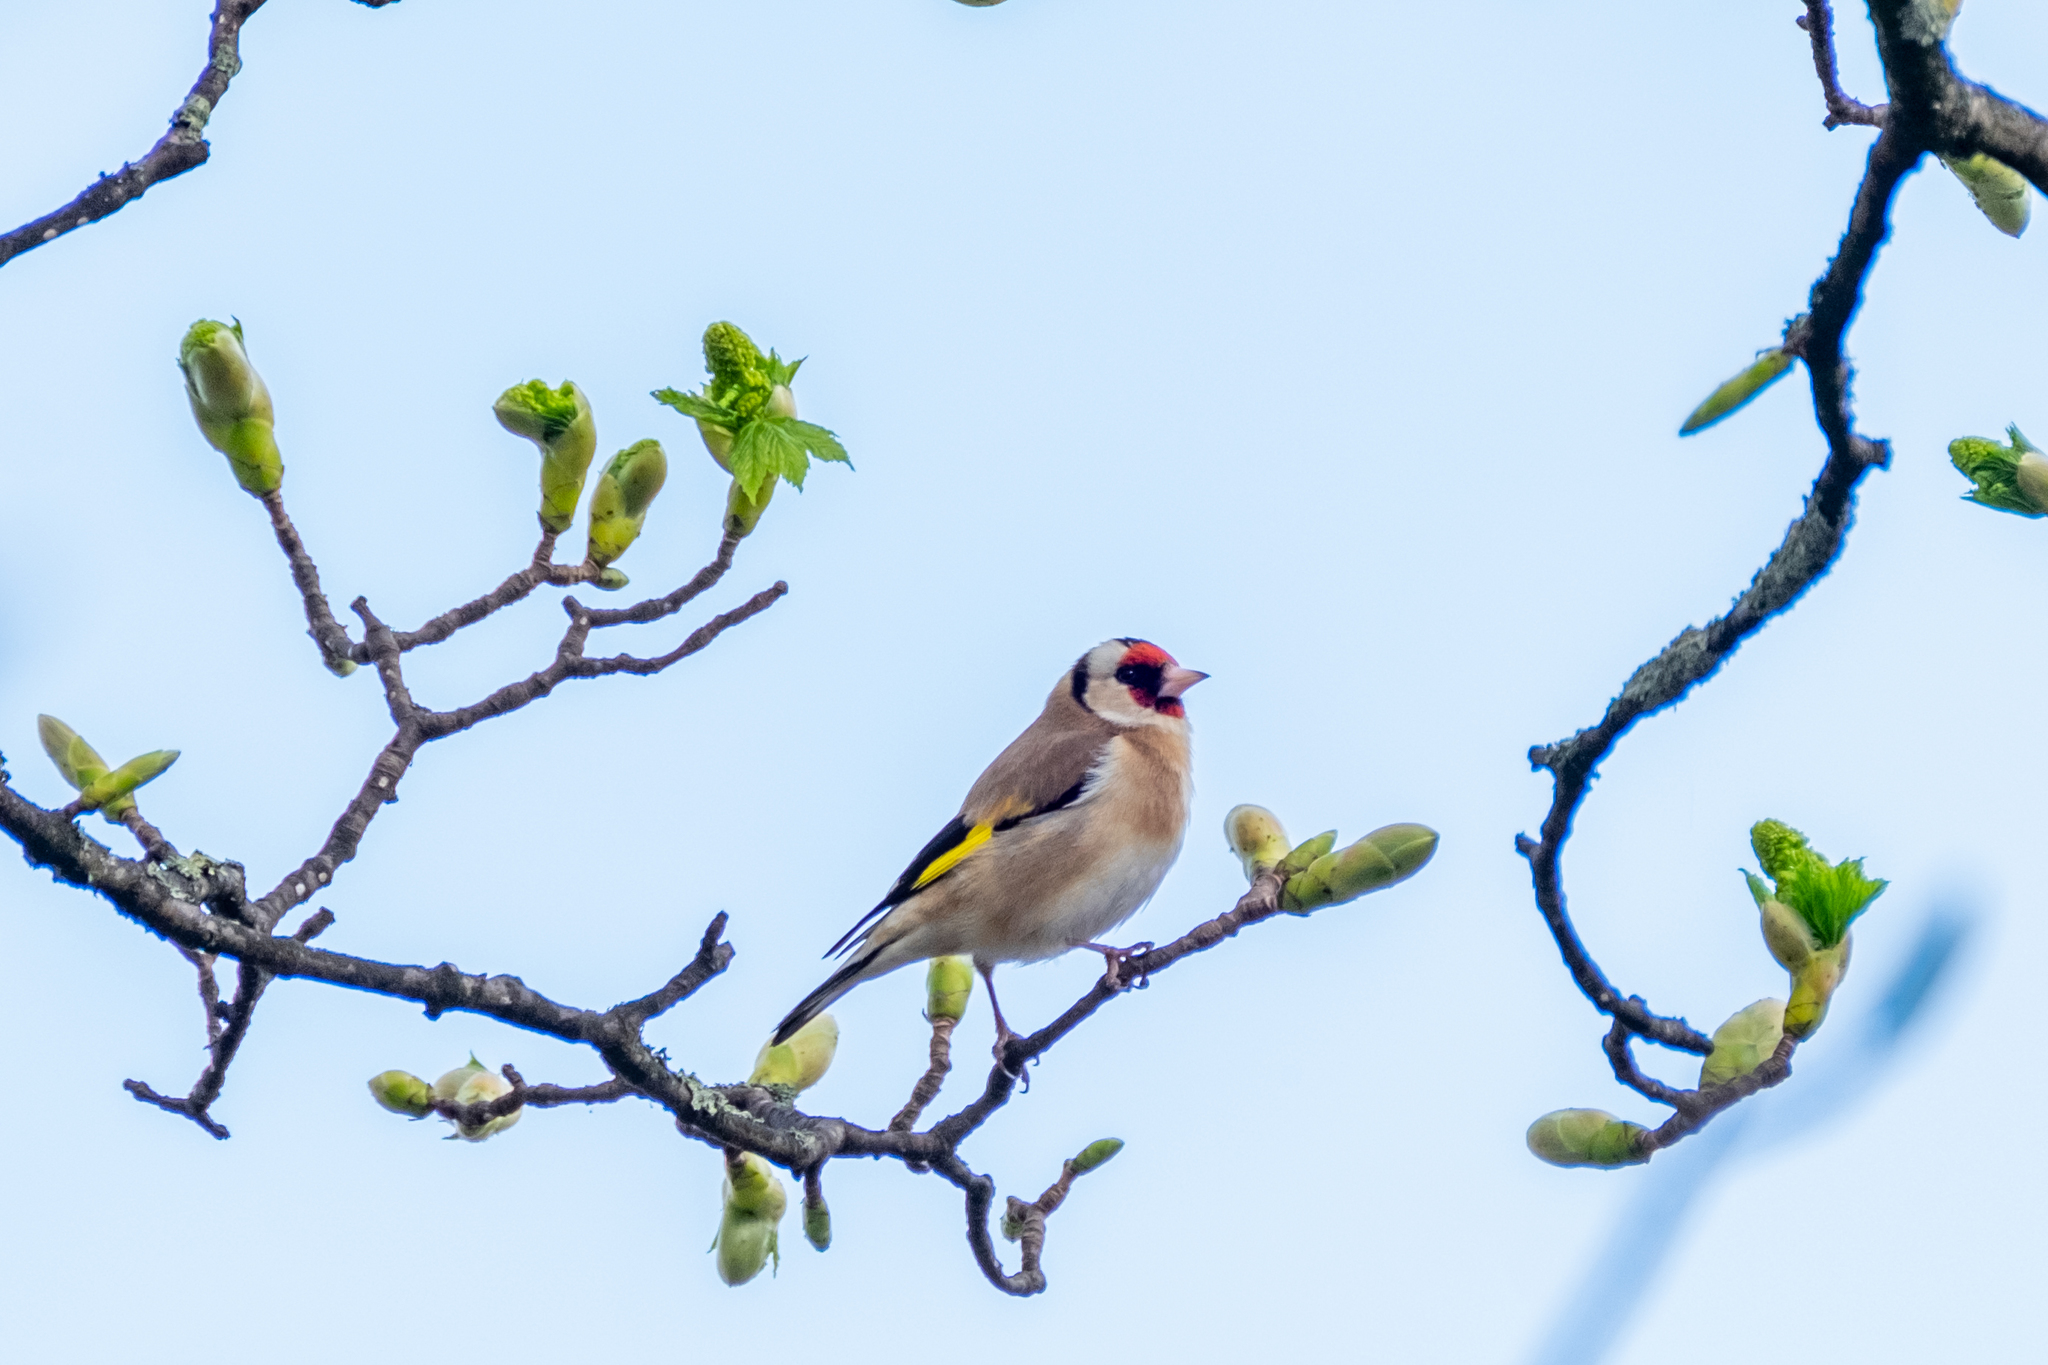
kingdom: Animalia
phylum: Chordata
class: Aves
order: Passeriformes
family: Fringillidae
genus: Carduelis
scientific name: Carduelis carduelis
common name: European goldfinch
